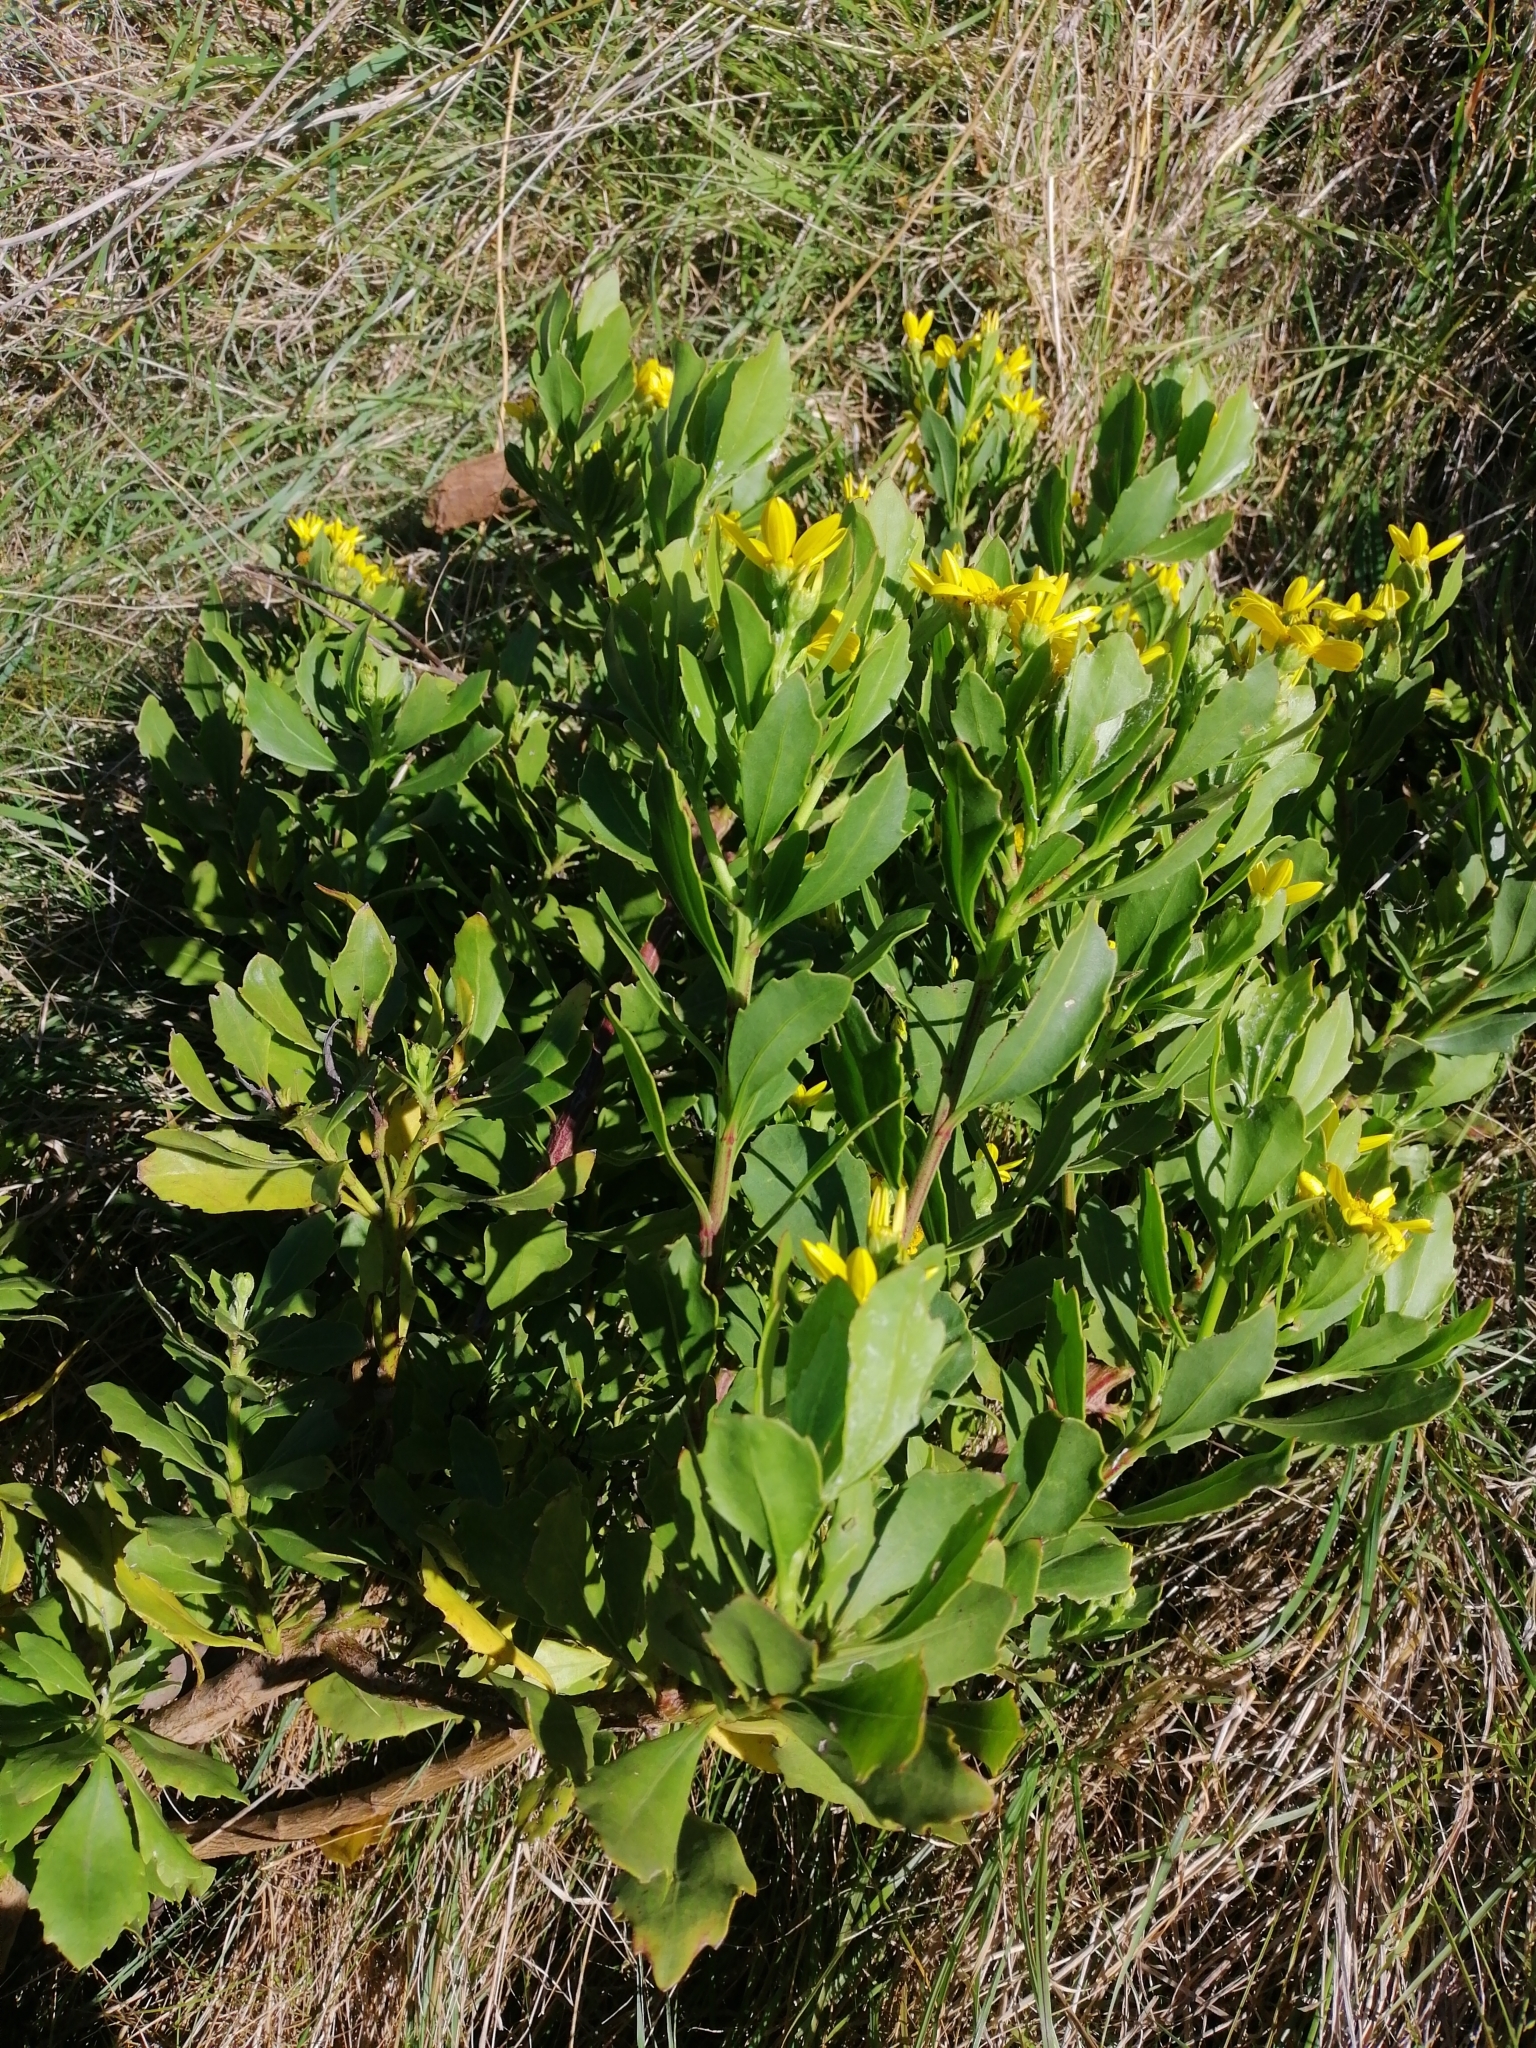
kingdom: Plantae
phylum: Tracheophyta
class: Magnoliopsida
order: Asterales
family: Asteraceae
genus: Osteospermum
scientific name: Osteospermum moniliferum
